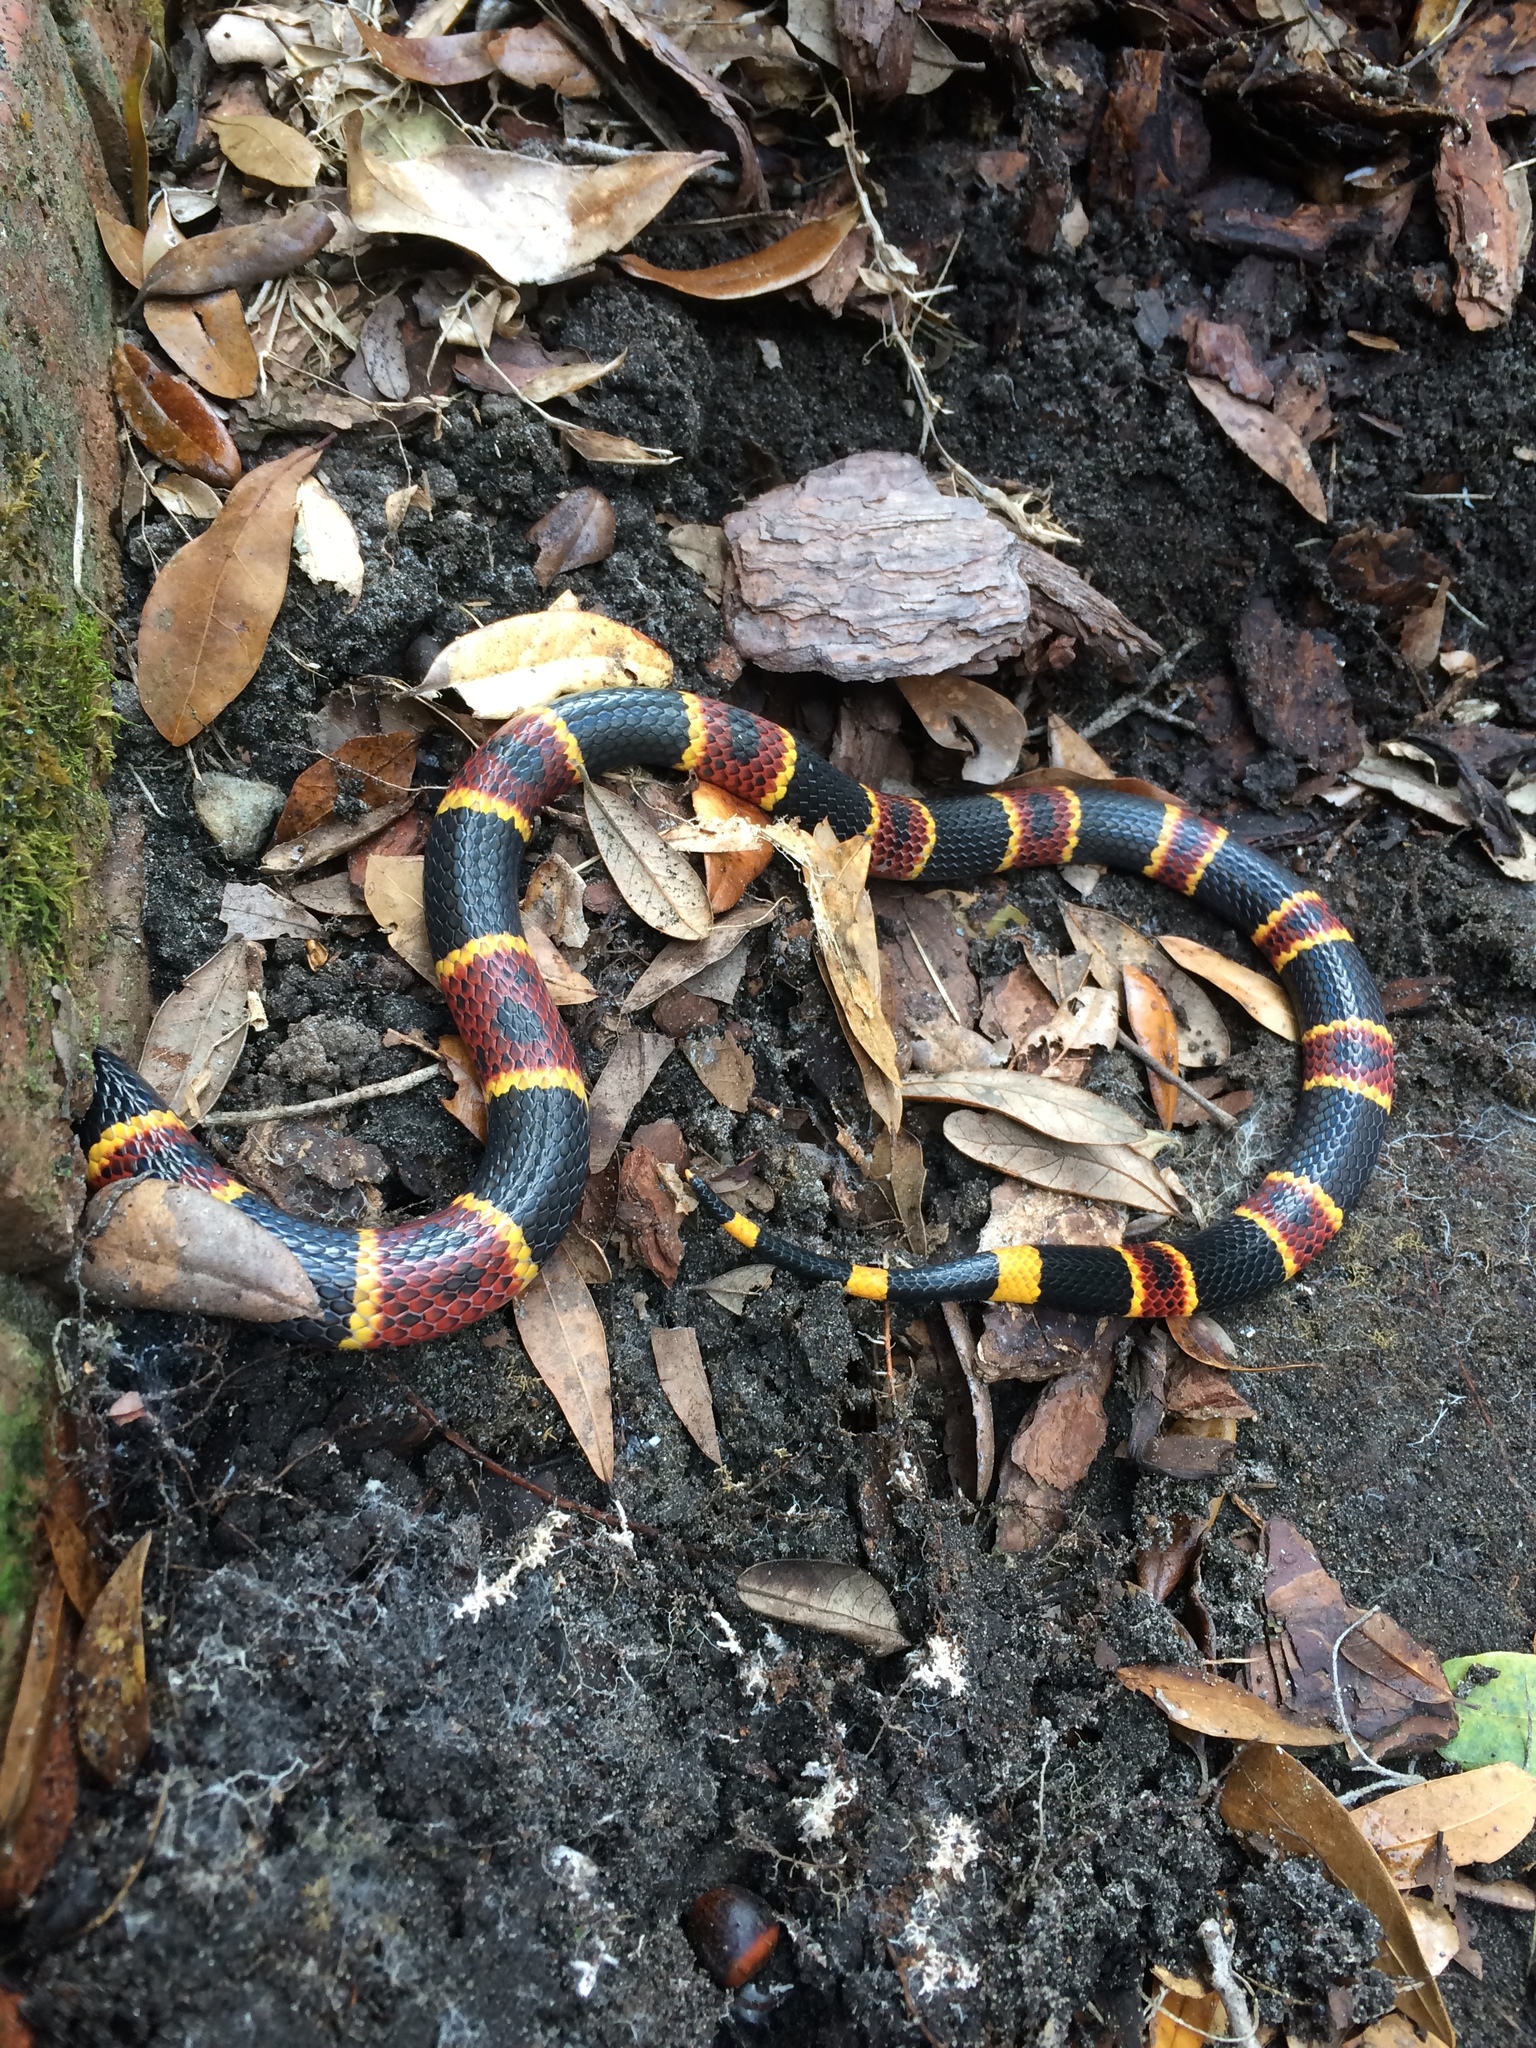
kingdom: Animalia
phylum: Chordata
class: Squamata
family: Elapidae
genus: Micrurus
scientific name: Micrurus fulvius
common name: Eastern coral snake
